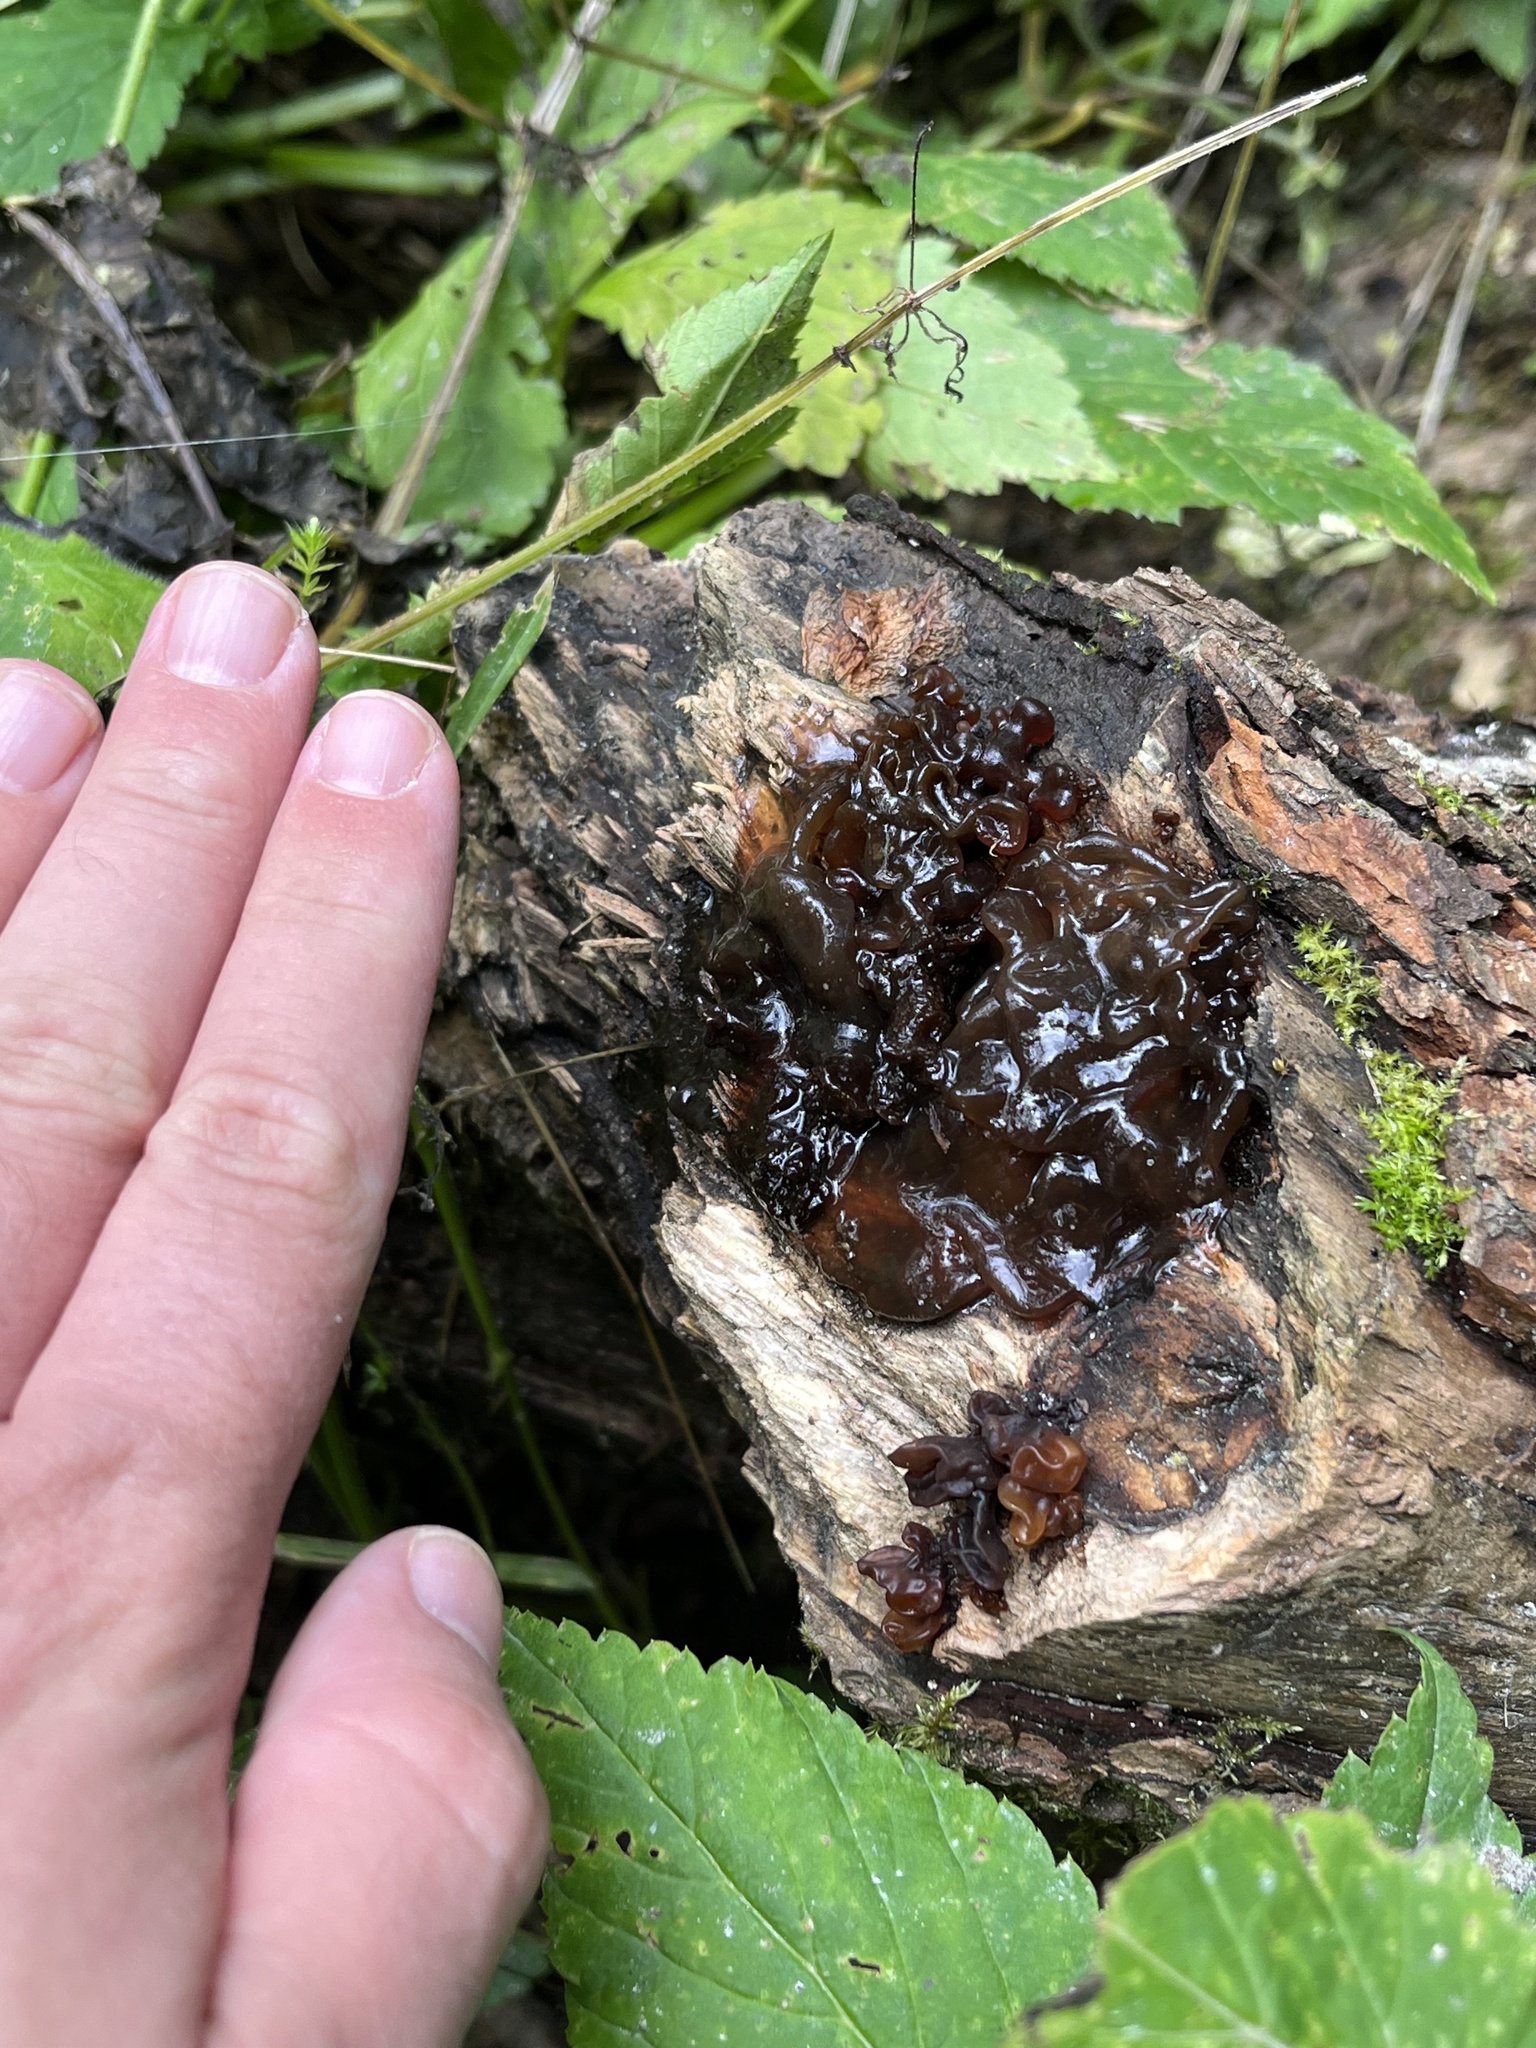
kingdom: Fungi
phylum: Basidiomycota
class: Tremellomycetes
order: Tremellales
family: Tremellaceae
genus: Phaeotremella
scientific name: Phaeotremella frondosa
